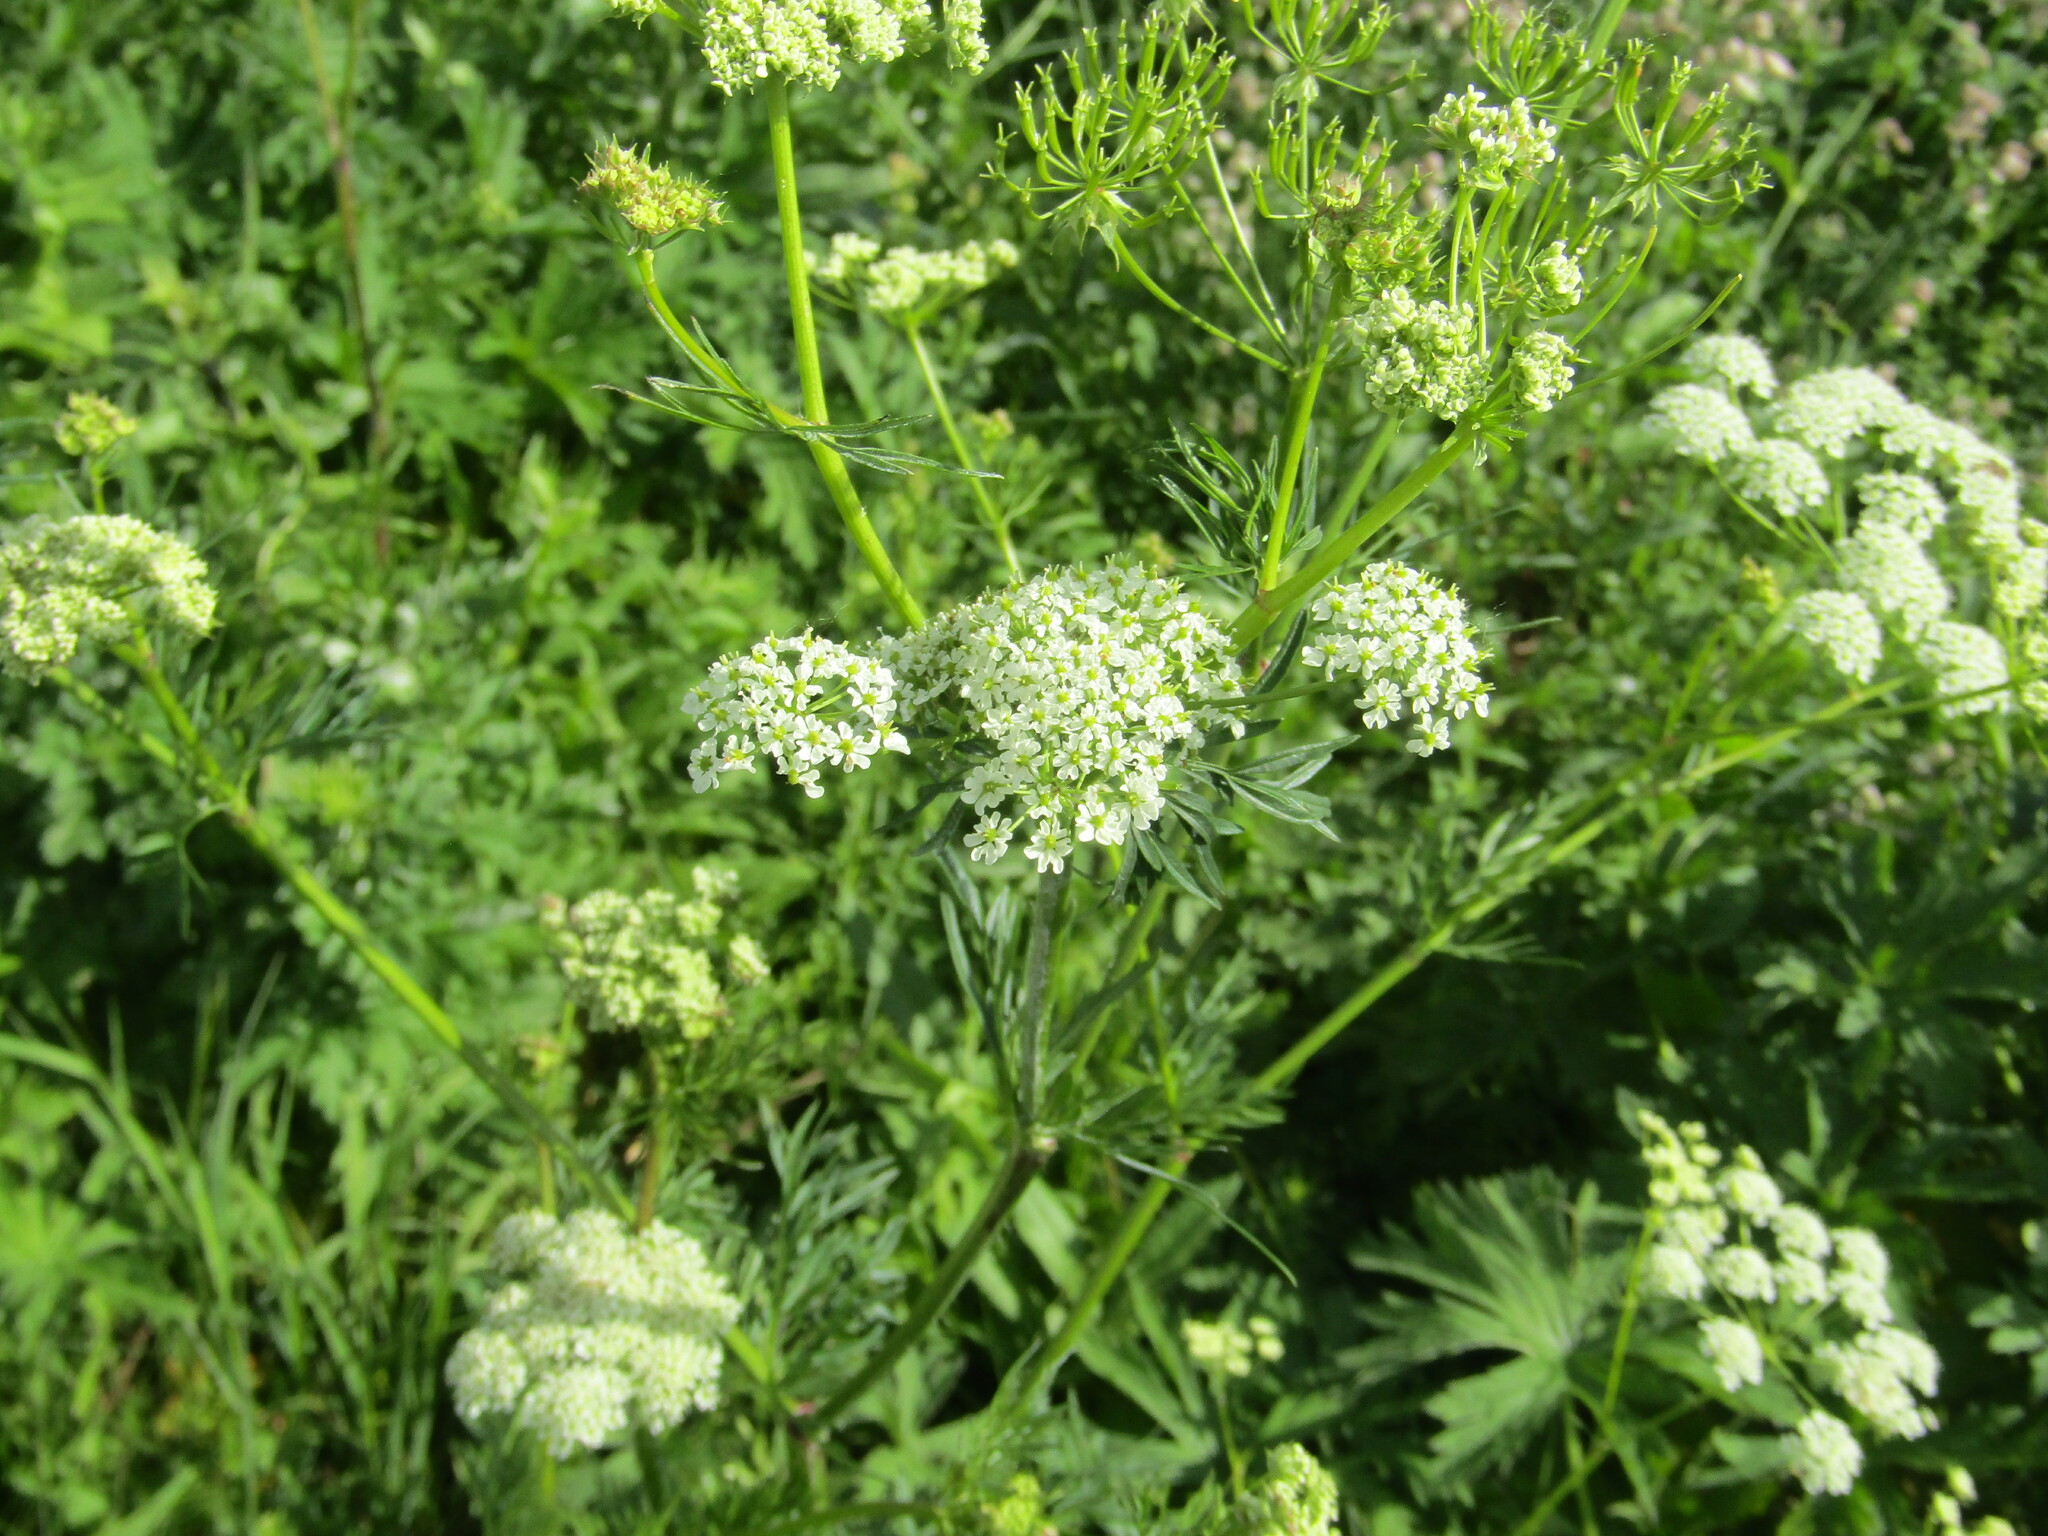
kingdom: Plantae
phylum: Tracheophyta
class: Magnoliopsida
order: Apiales
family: Apiaceae
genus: Chaerophyllum
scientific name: Chaerophyllum prescottii
